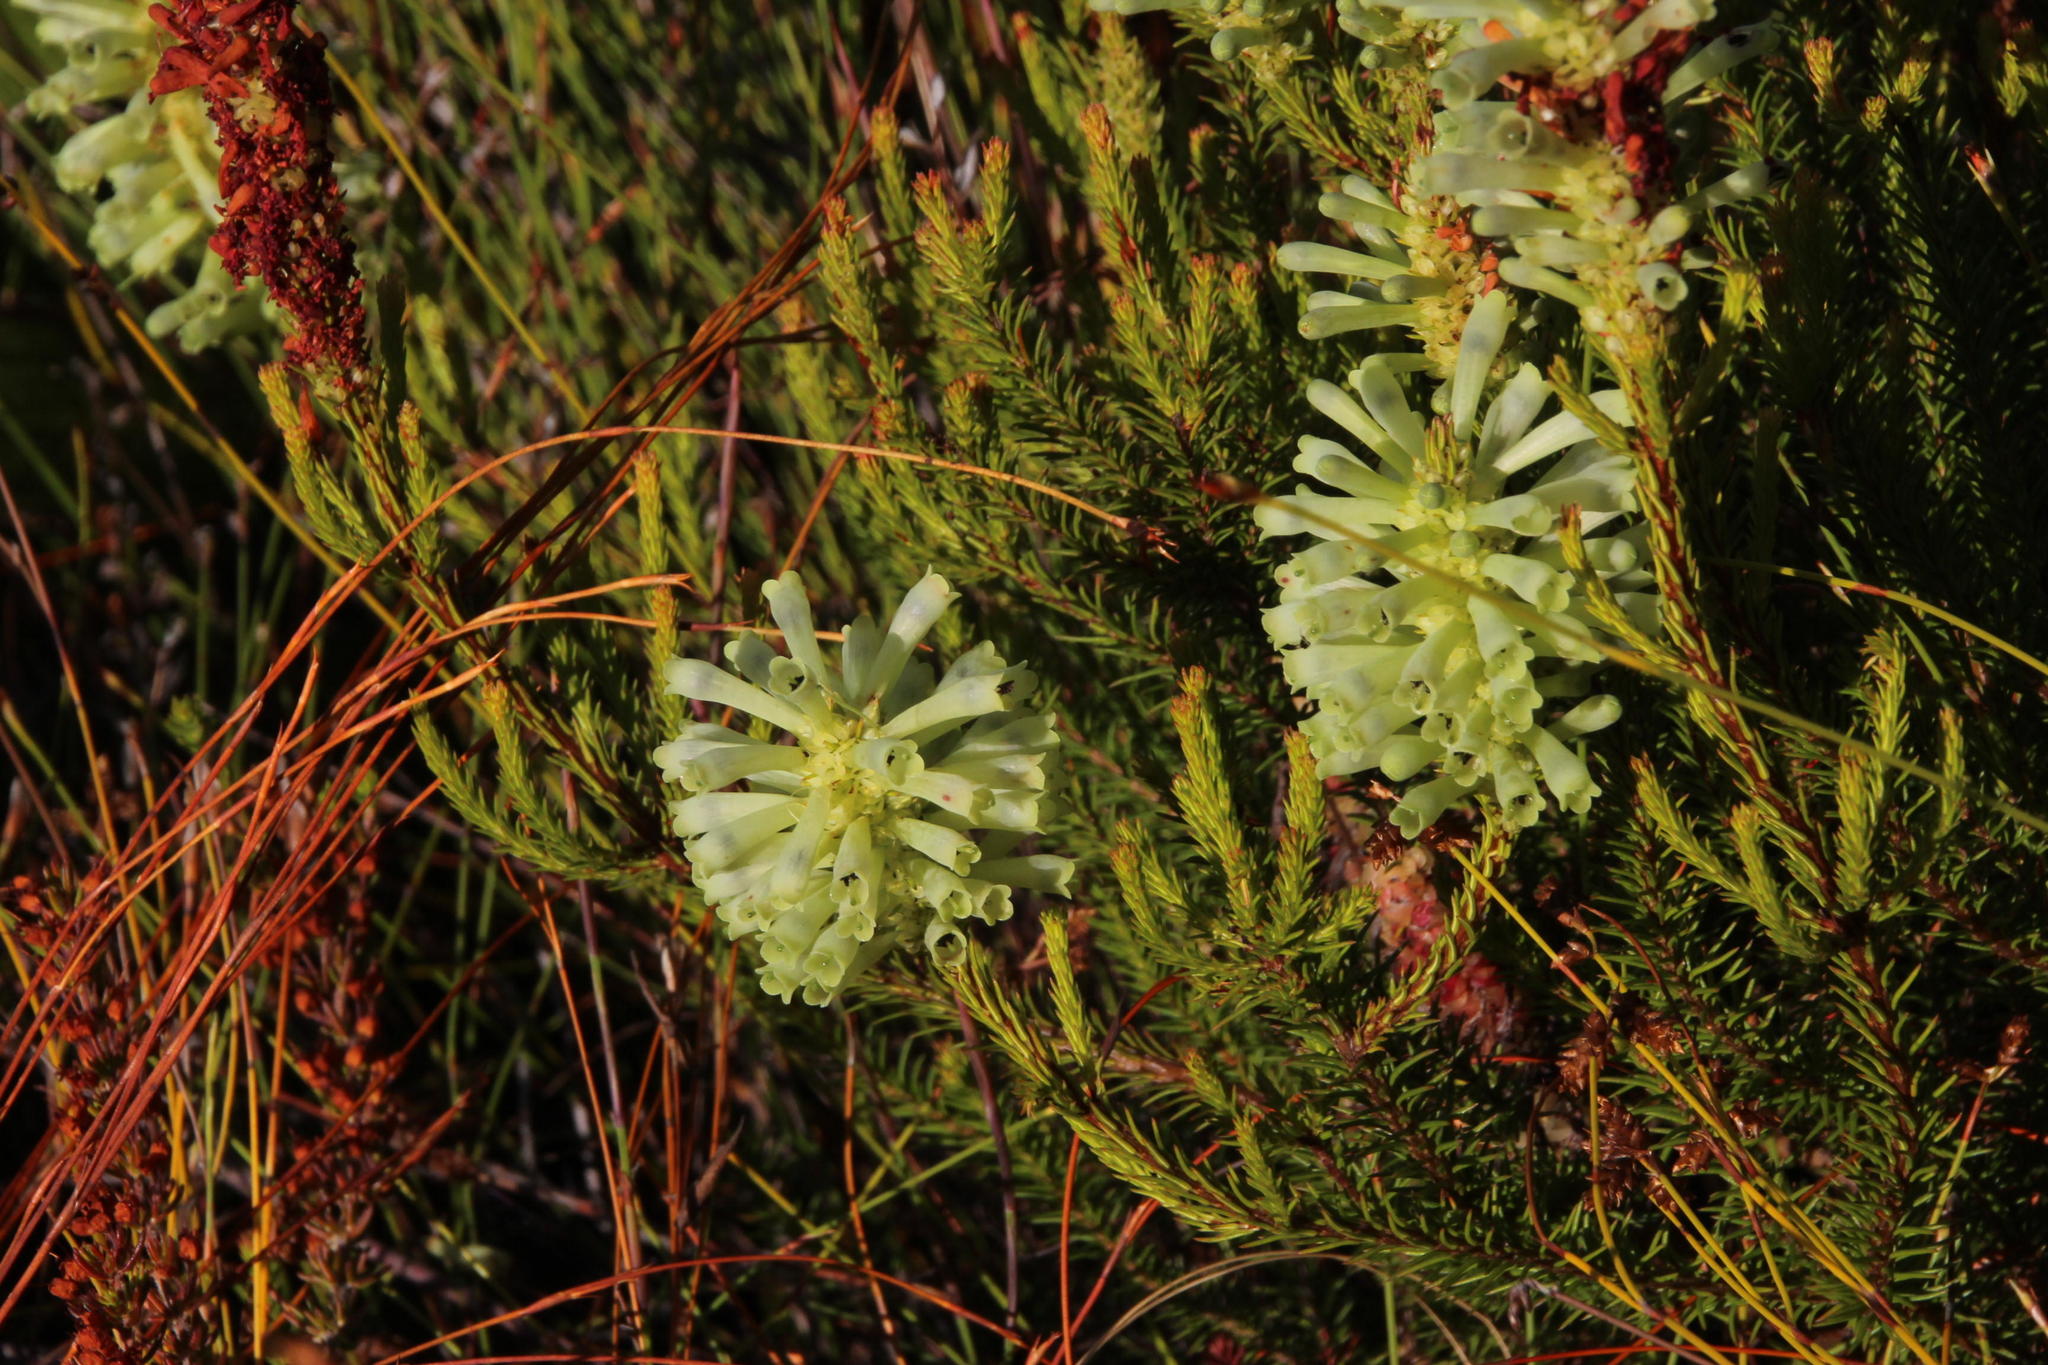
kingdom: Plantae
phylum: Tracheophyta
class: Magnoliopsida
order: Ericales
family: Ericaceae
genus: Erica
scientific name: Erica sessiliflora
